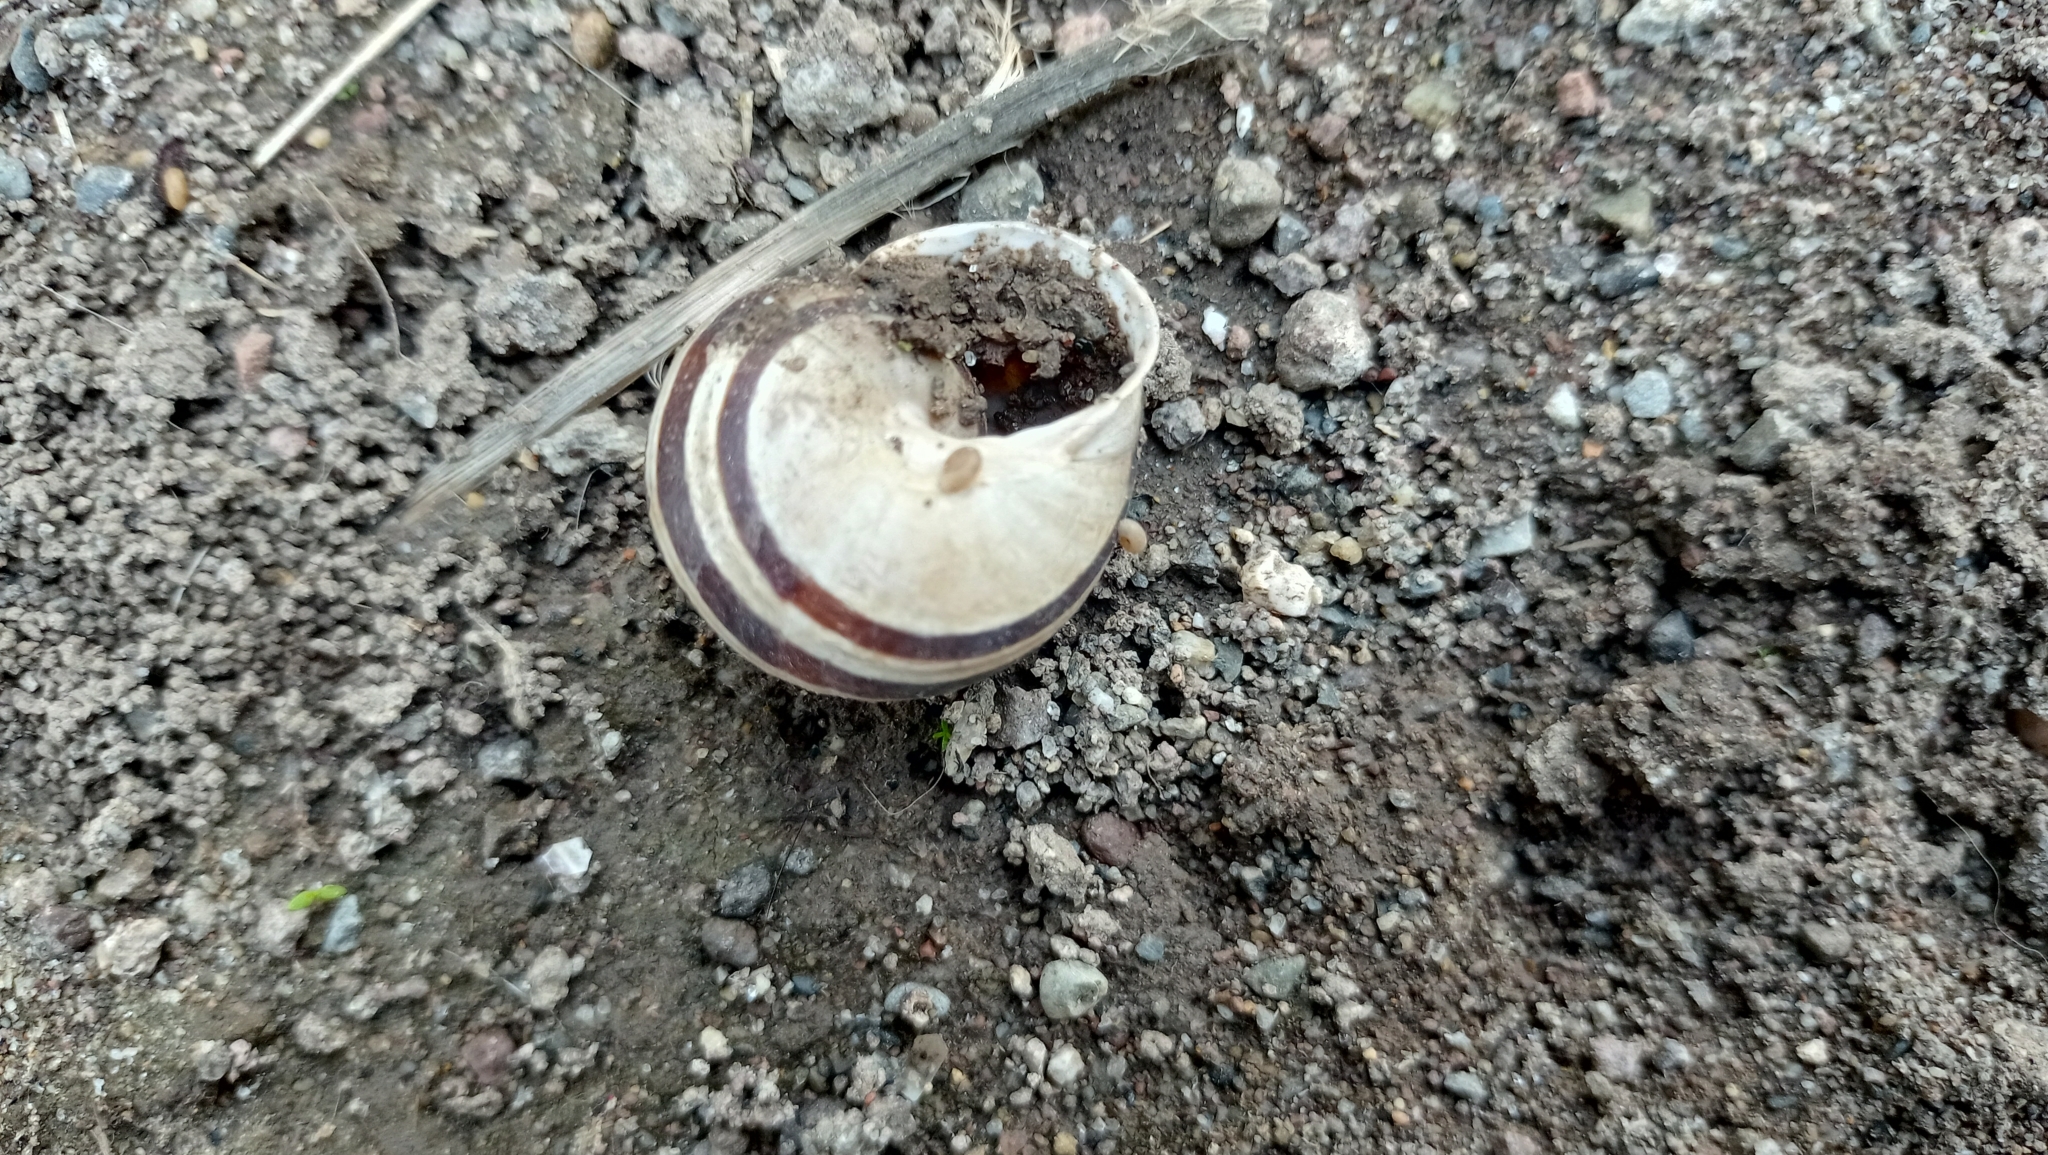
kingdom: Animalia
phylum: Mollusca
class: Gastropoda
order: Stylommatophora
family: Helicidae
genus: Eobania
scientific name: Eobania vermiculata
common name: Chocolateband snail
